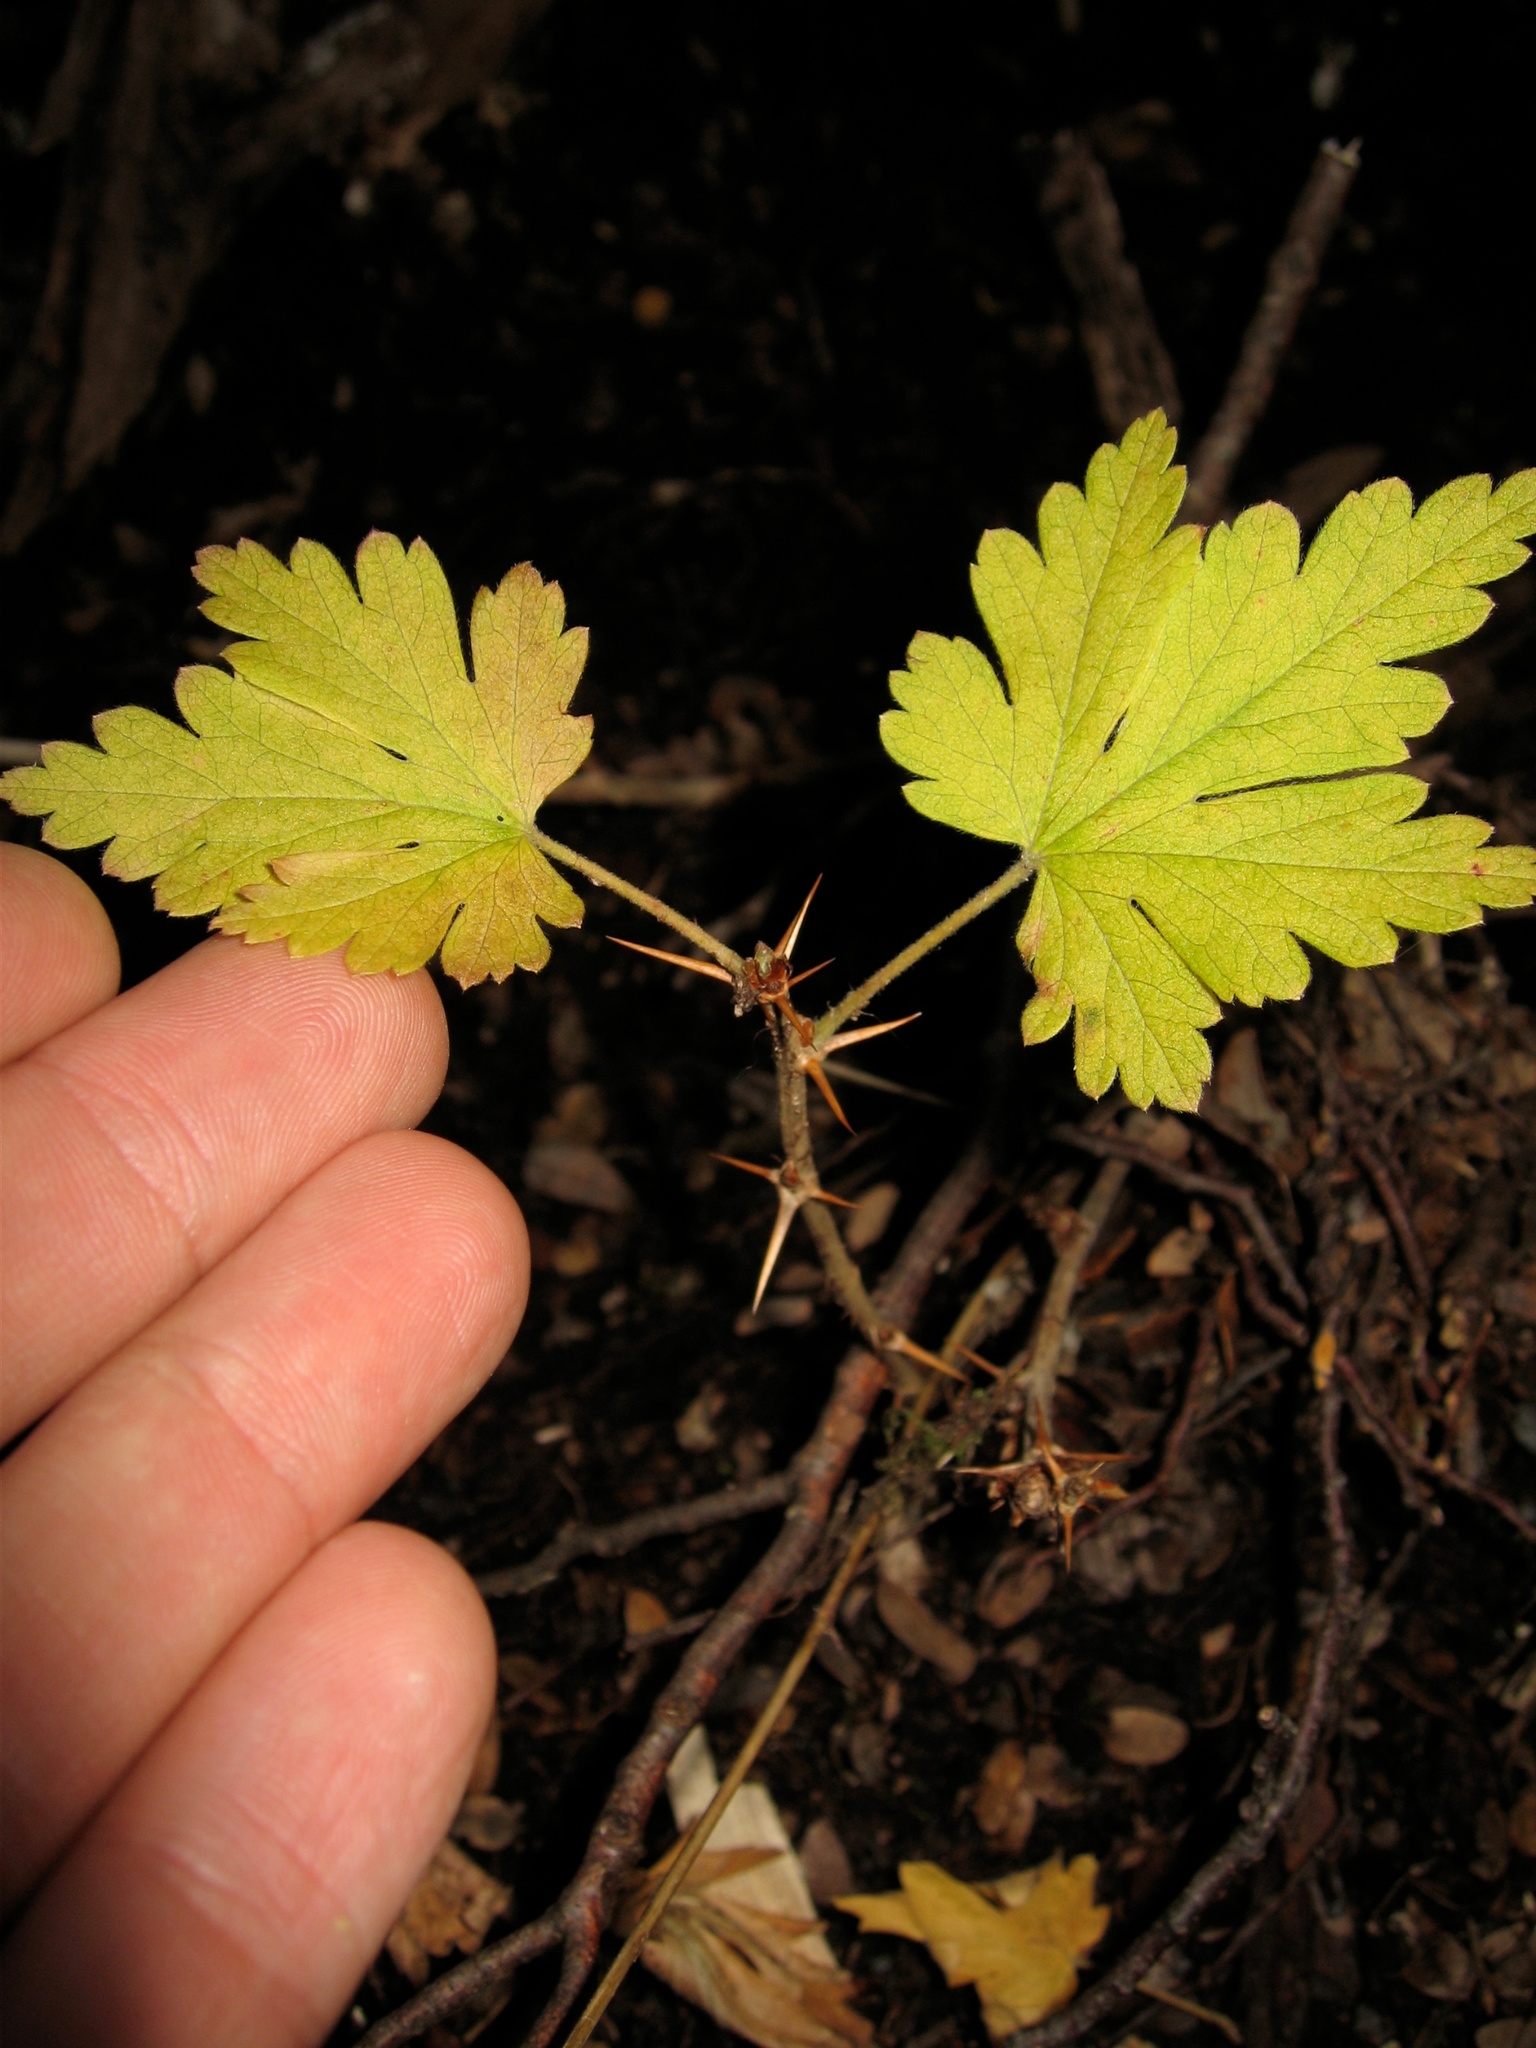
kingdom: Plantae
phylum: Tracheophyta
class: Magnoliopsida
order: Saxifragales
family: Grossulariaceae
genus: Ribes
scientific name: Ribes uva-crispa
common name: Gooseberry
